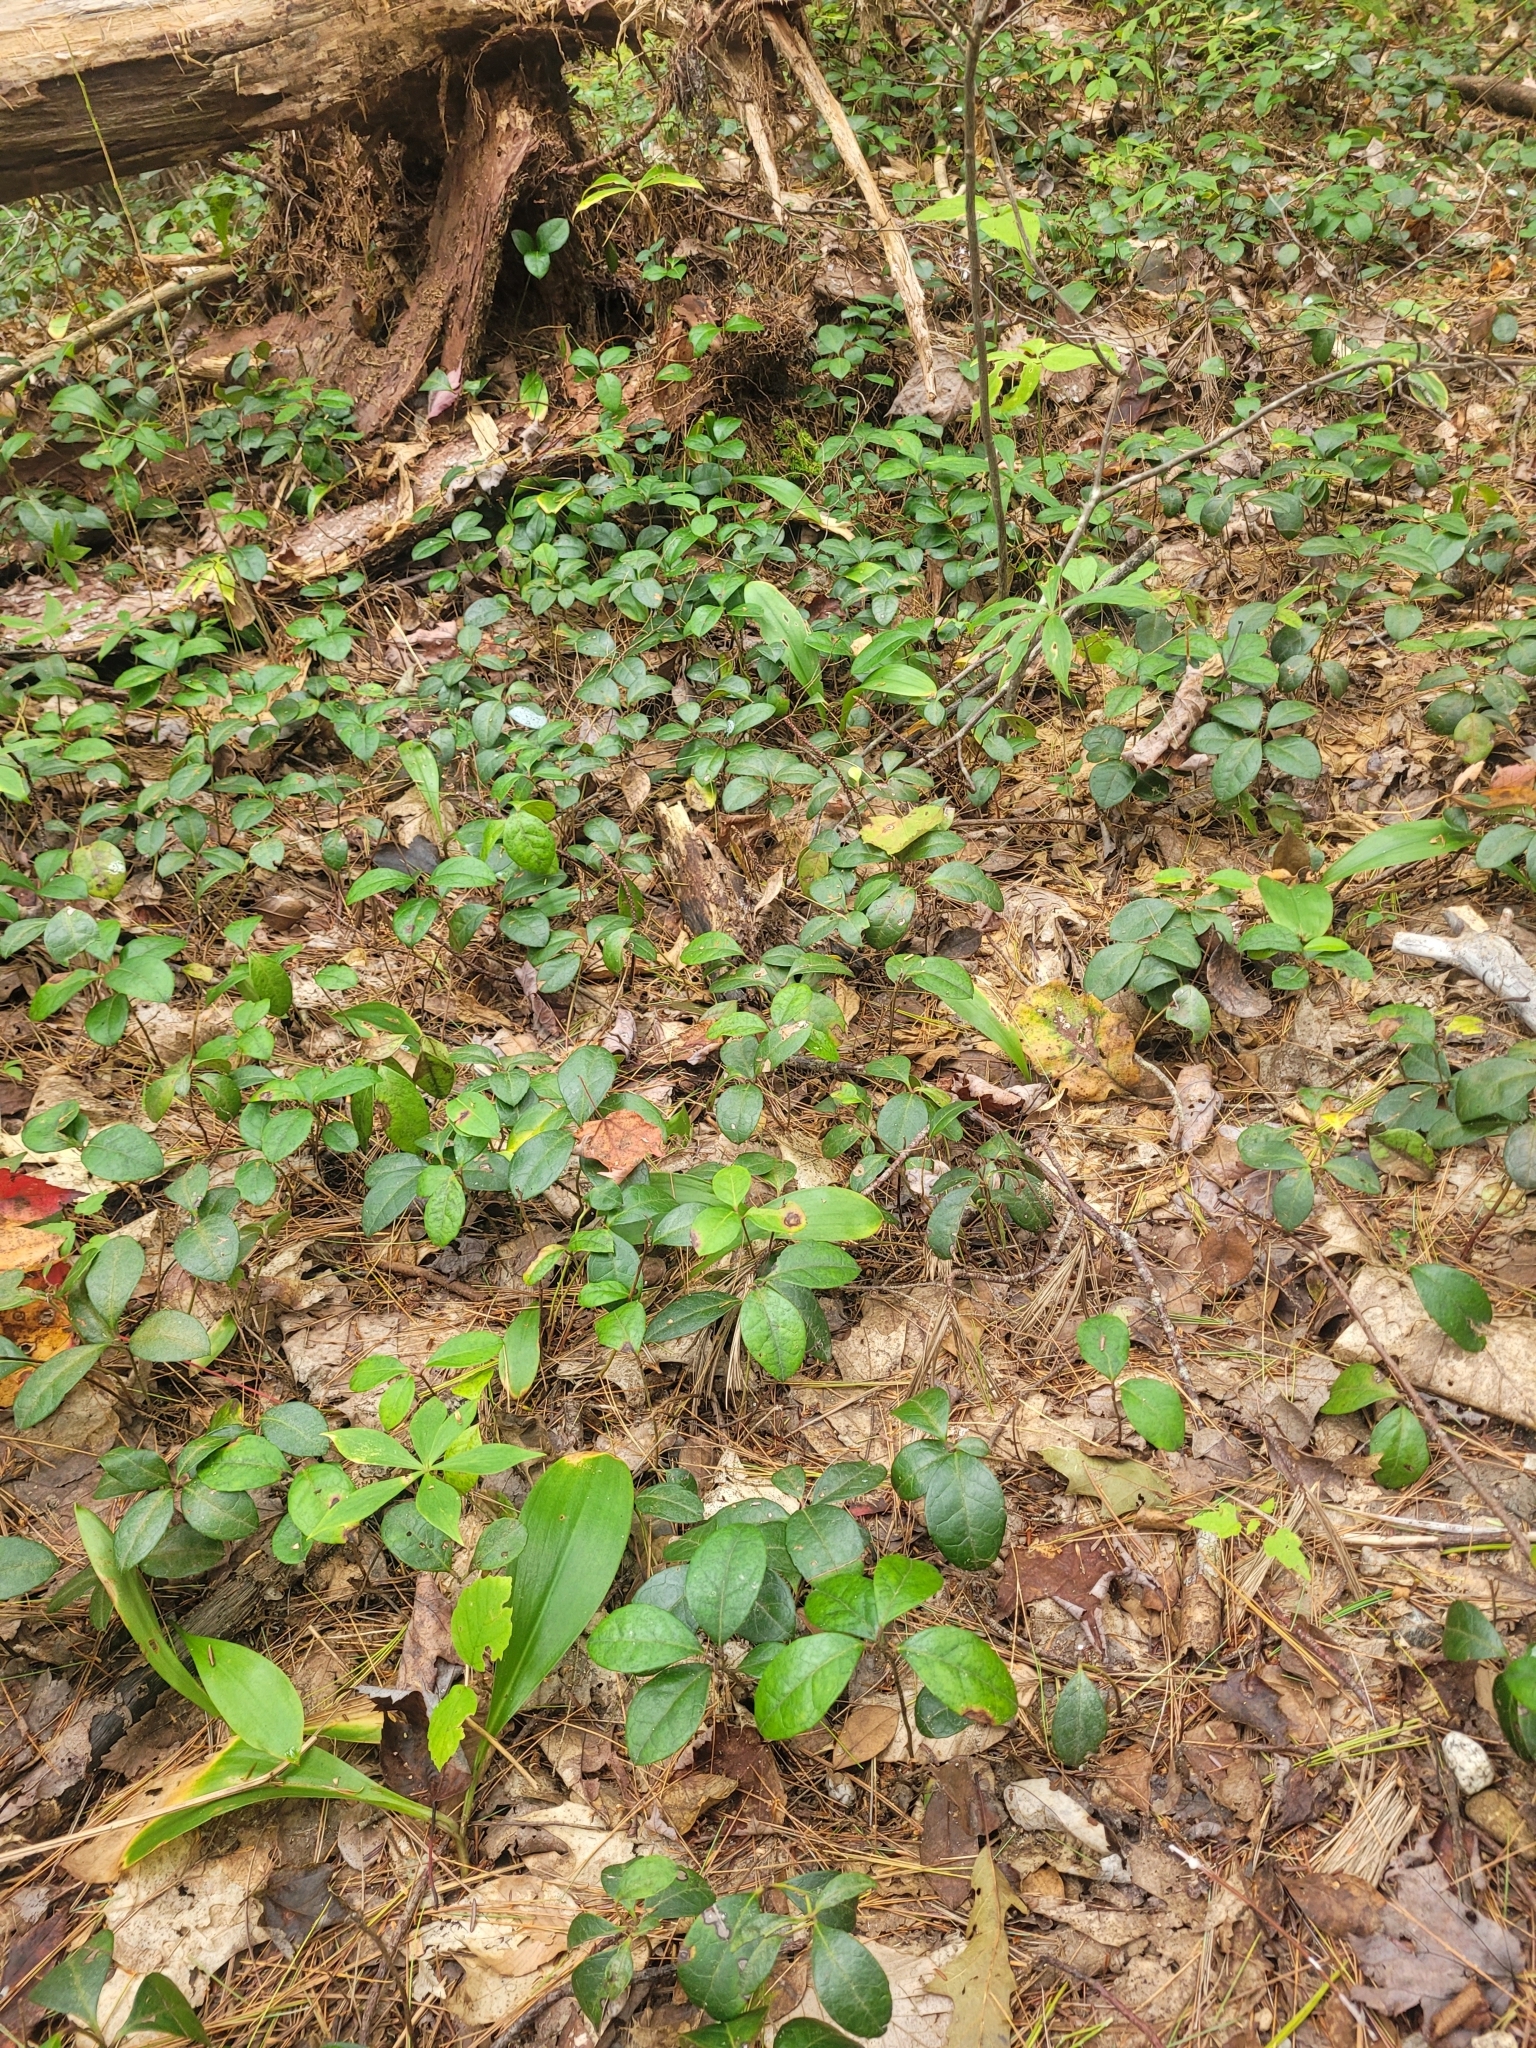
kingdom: Plantae
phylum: Tracheophyta
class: Liliopsida
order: Liliales
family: Liliaceae
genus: Clintonia
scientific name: Clintonia borealis
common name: Yellow clintonia
